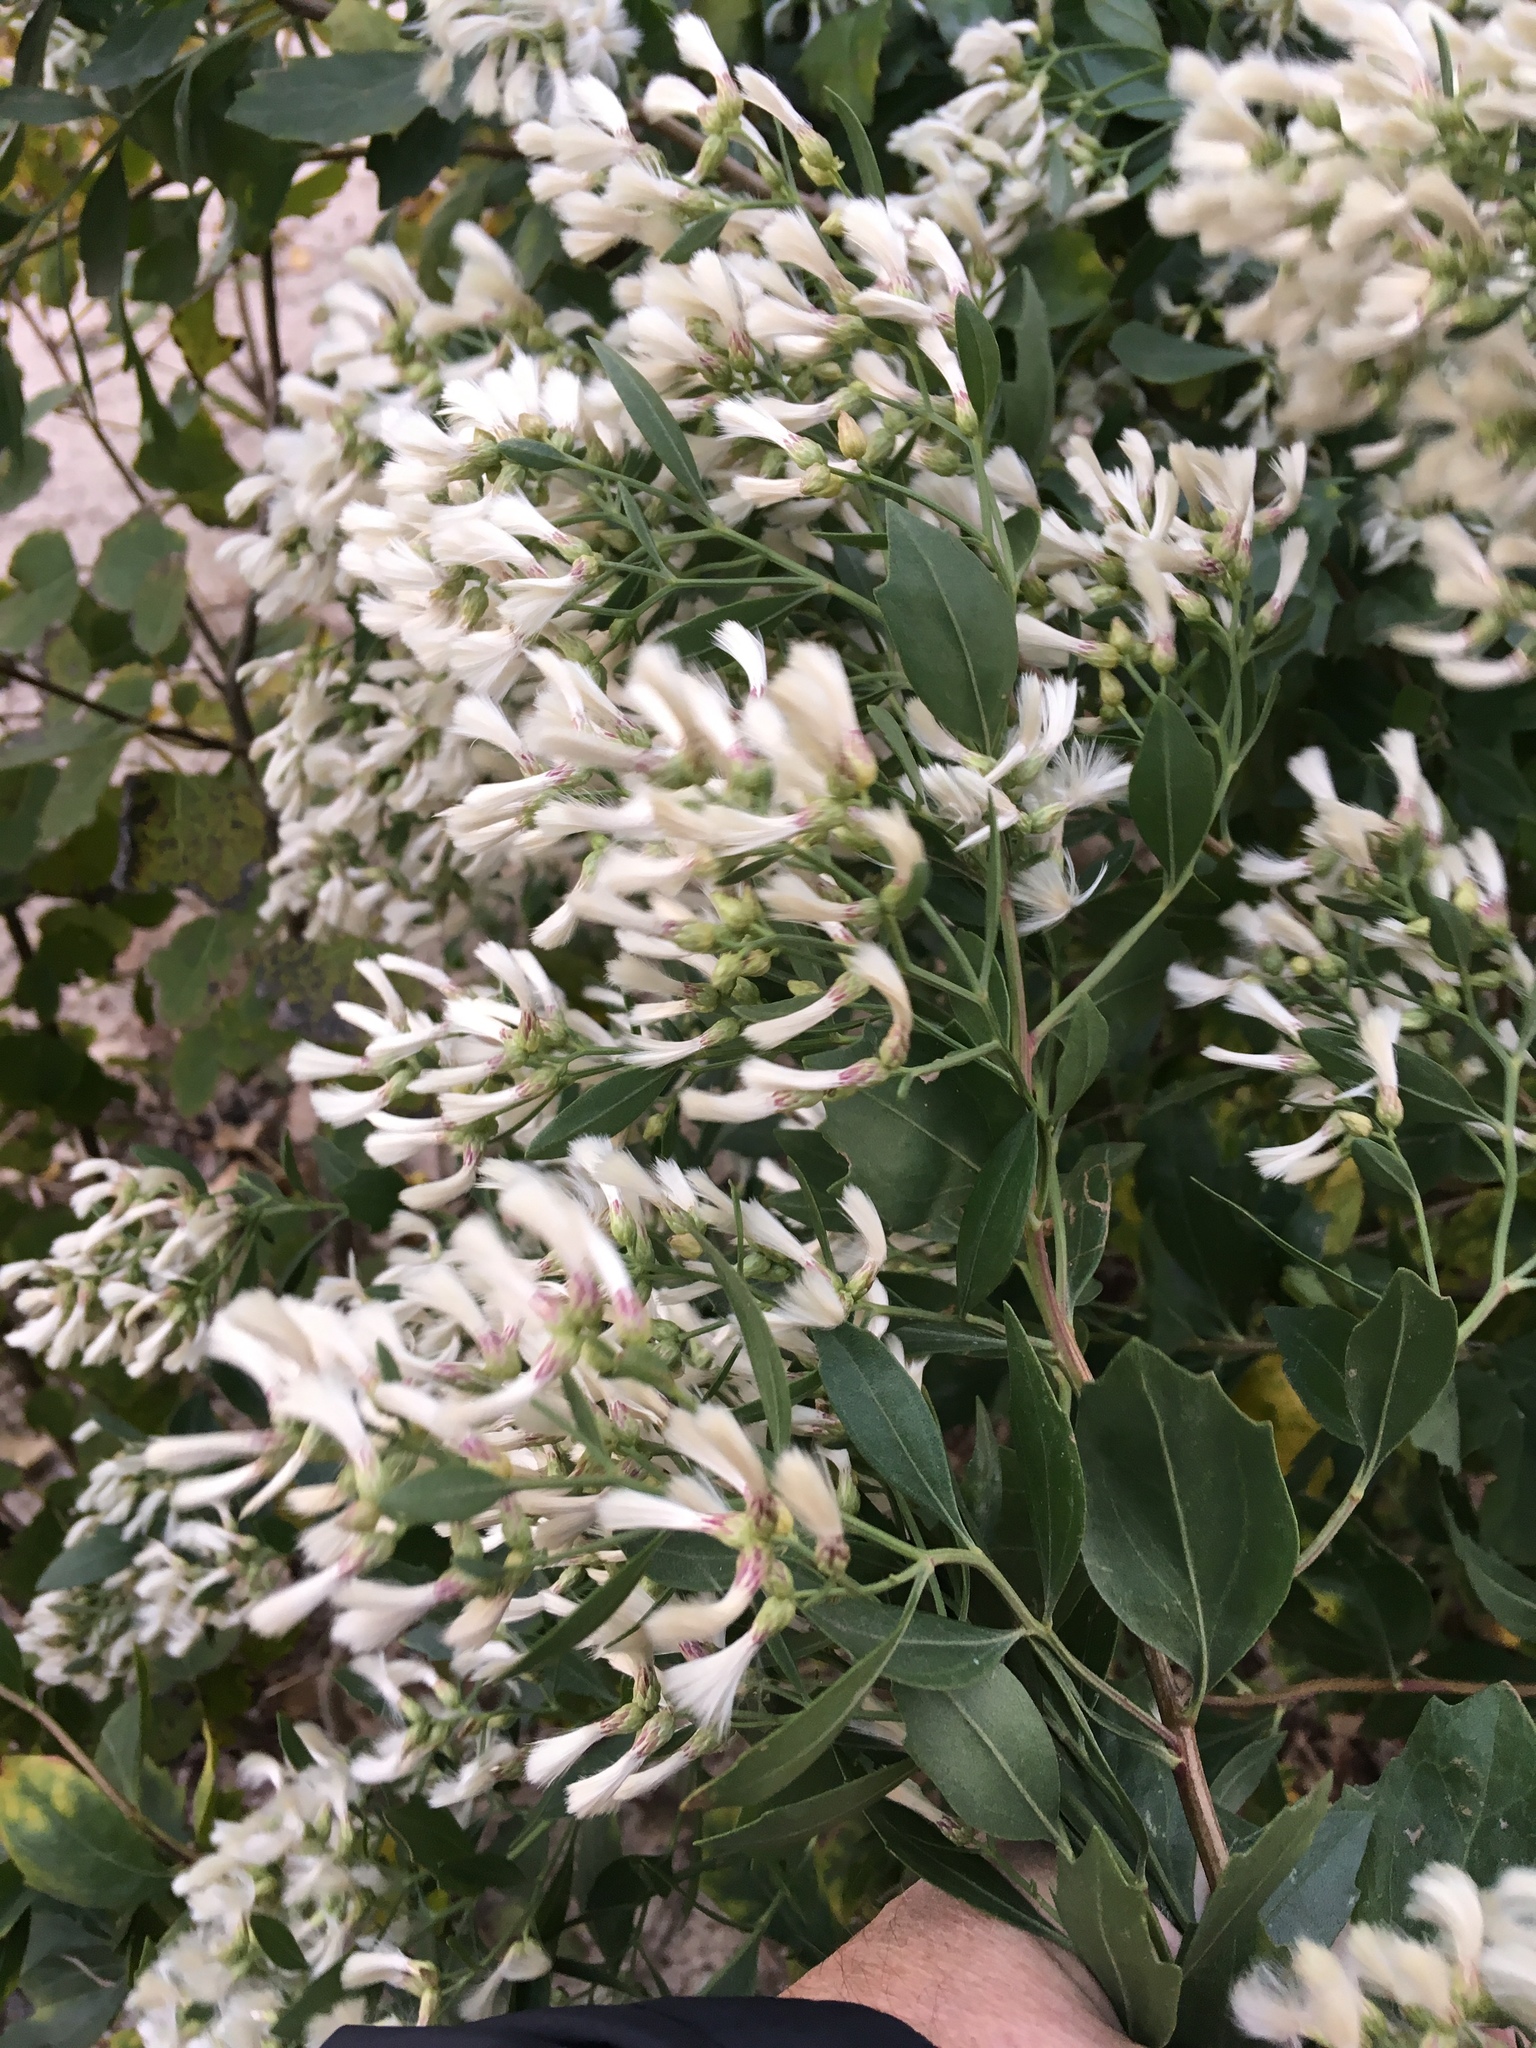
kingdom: Plantae
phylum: Tracheophyta
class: Magnoliopsida
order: Asterales
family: Asteraceae
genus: Baccharis
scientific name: Baccharis halimifolia
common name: Eastern baccharis
